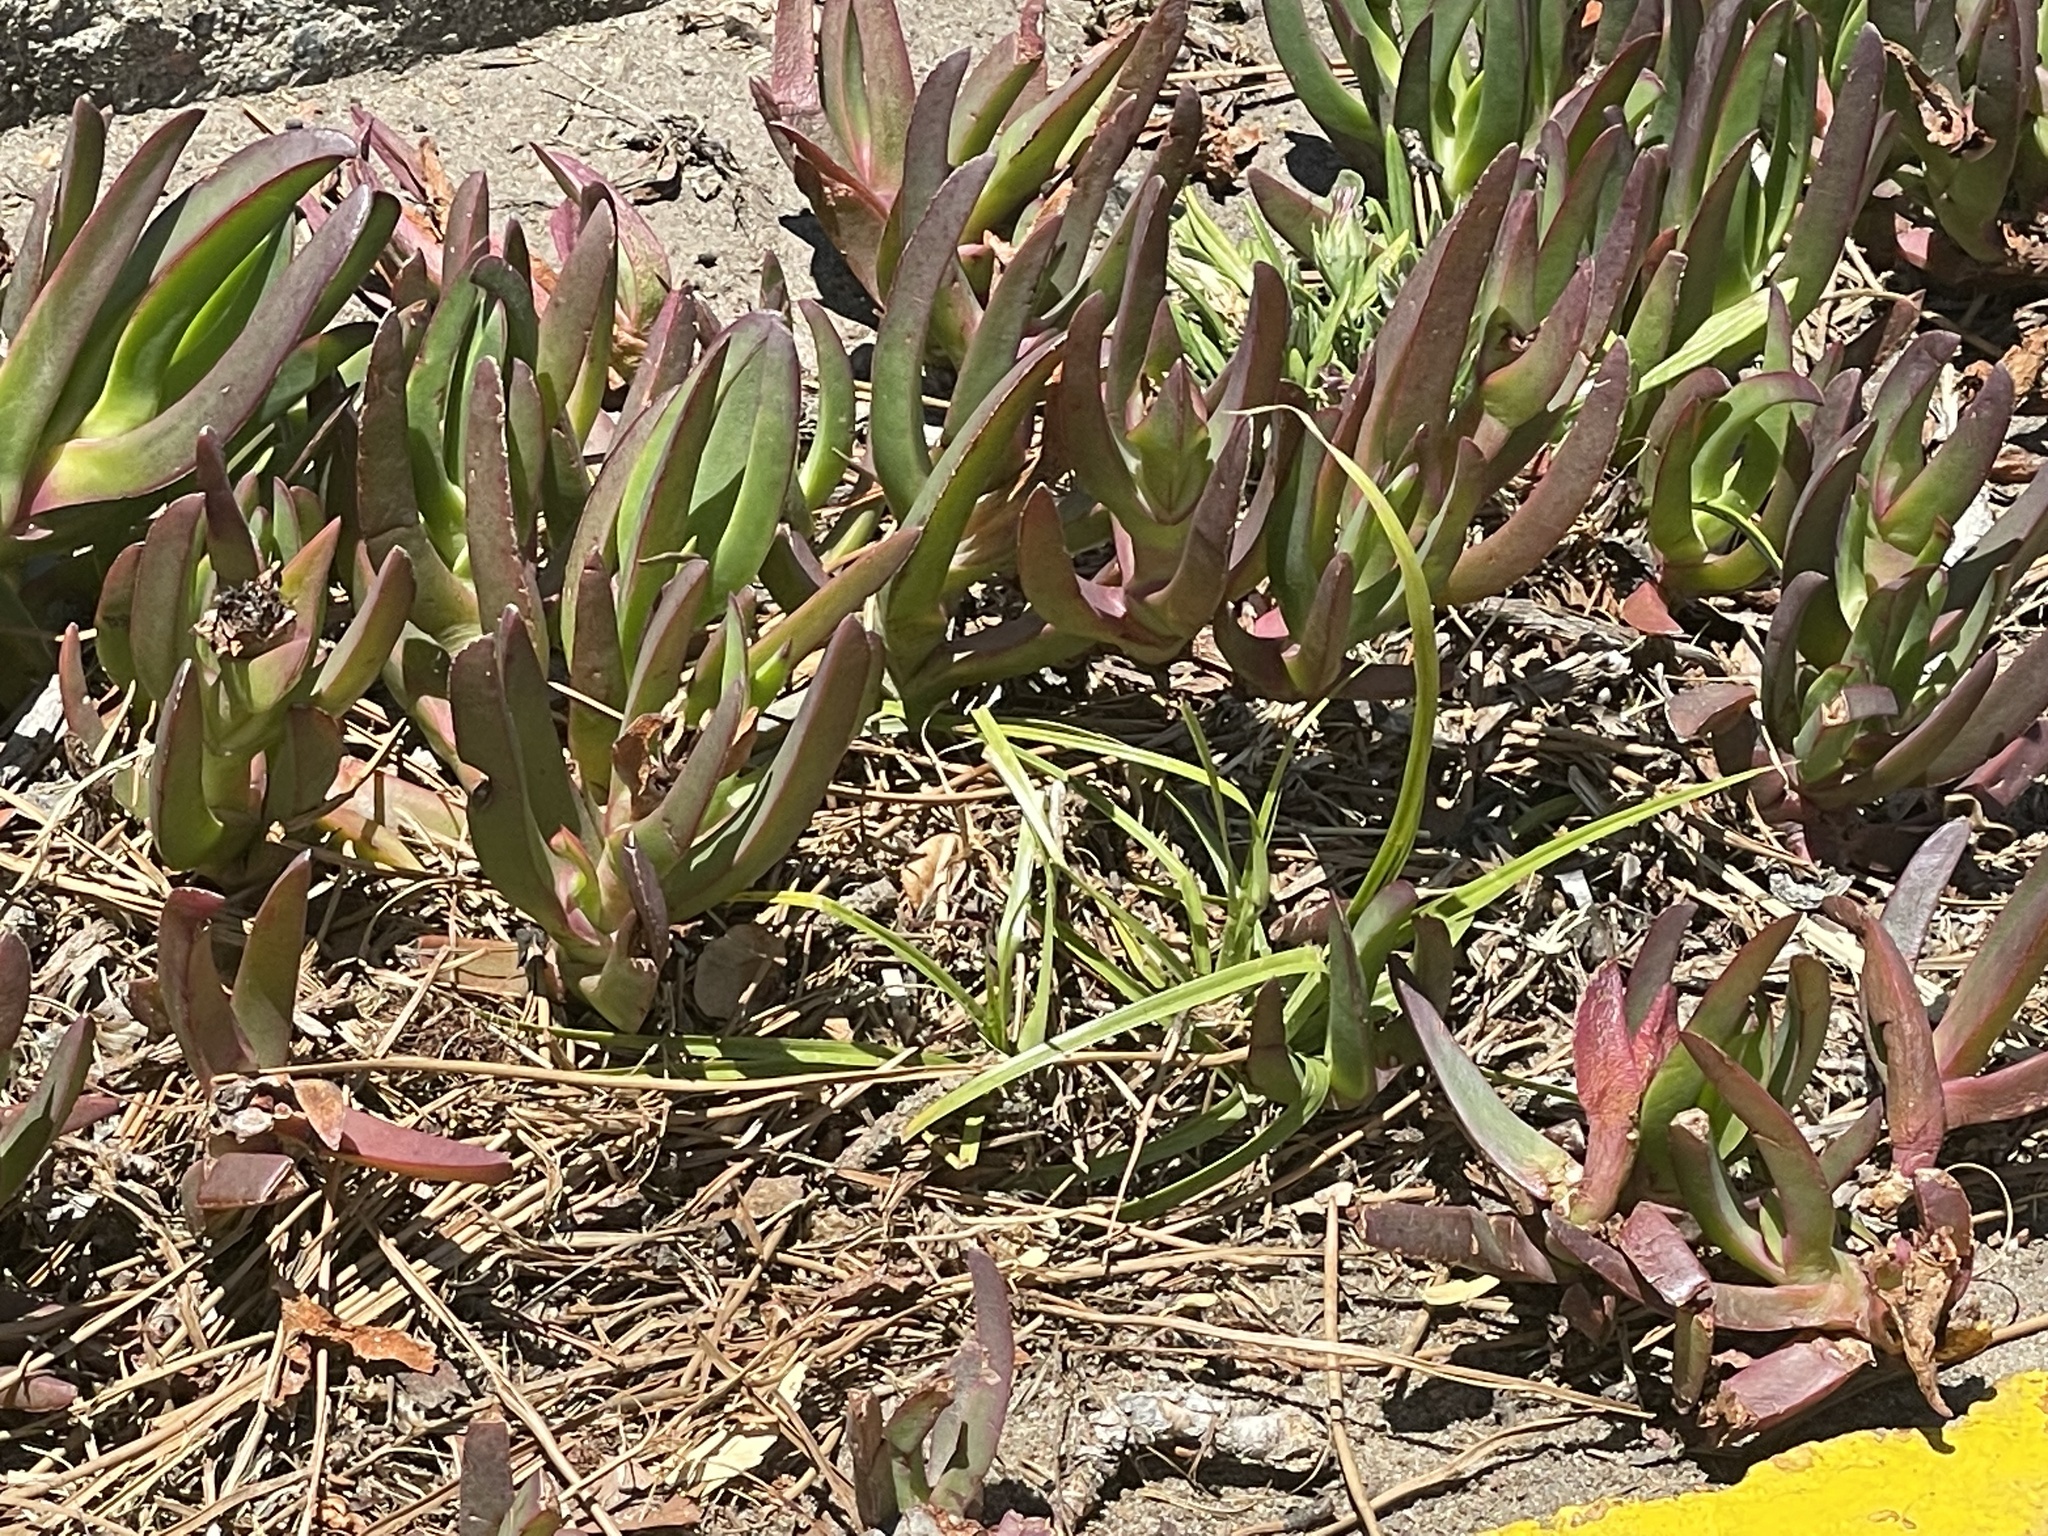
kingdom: Plantae
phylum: Tracheophyta
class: Magnoliopsida
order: Caryophyllales
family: Aizoaceae
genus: Carpobrotus
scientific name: Carpobrotus edulis
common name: Hottentot-fig
